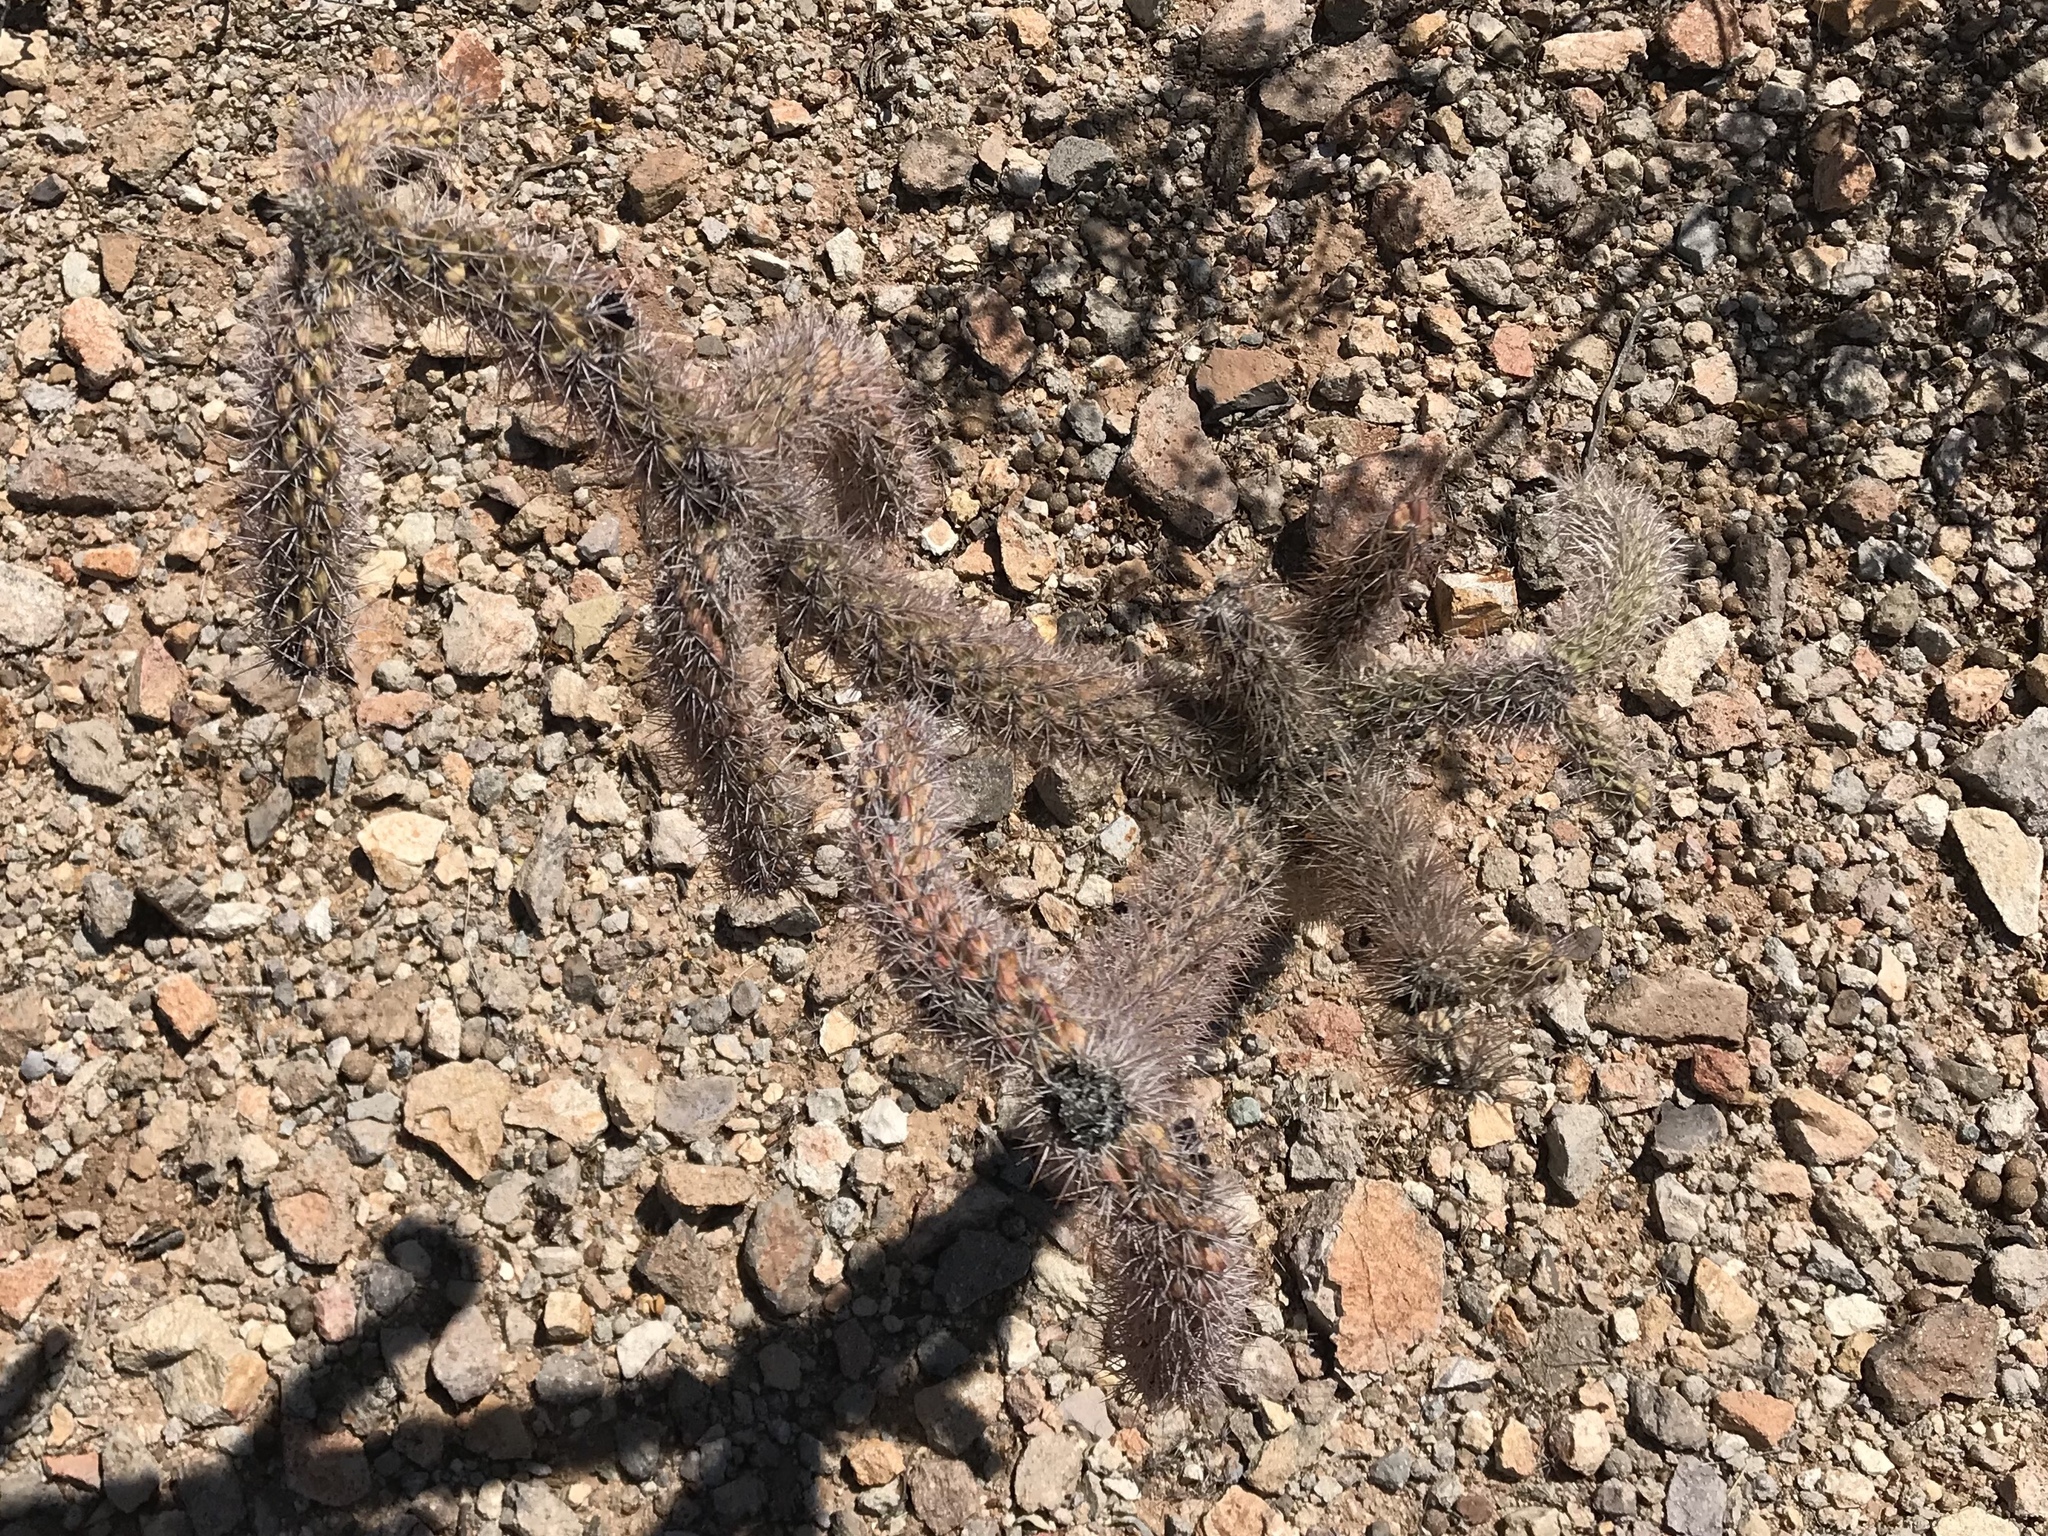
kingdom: Plantae
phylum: Tracheophyta
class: Magnoliopsida
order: Caryophyllales
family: Cactaceae
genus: Cylindropuntia
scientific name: Cylindropuntia imbricata
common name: Candelabrum cactus
